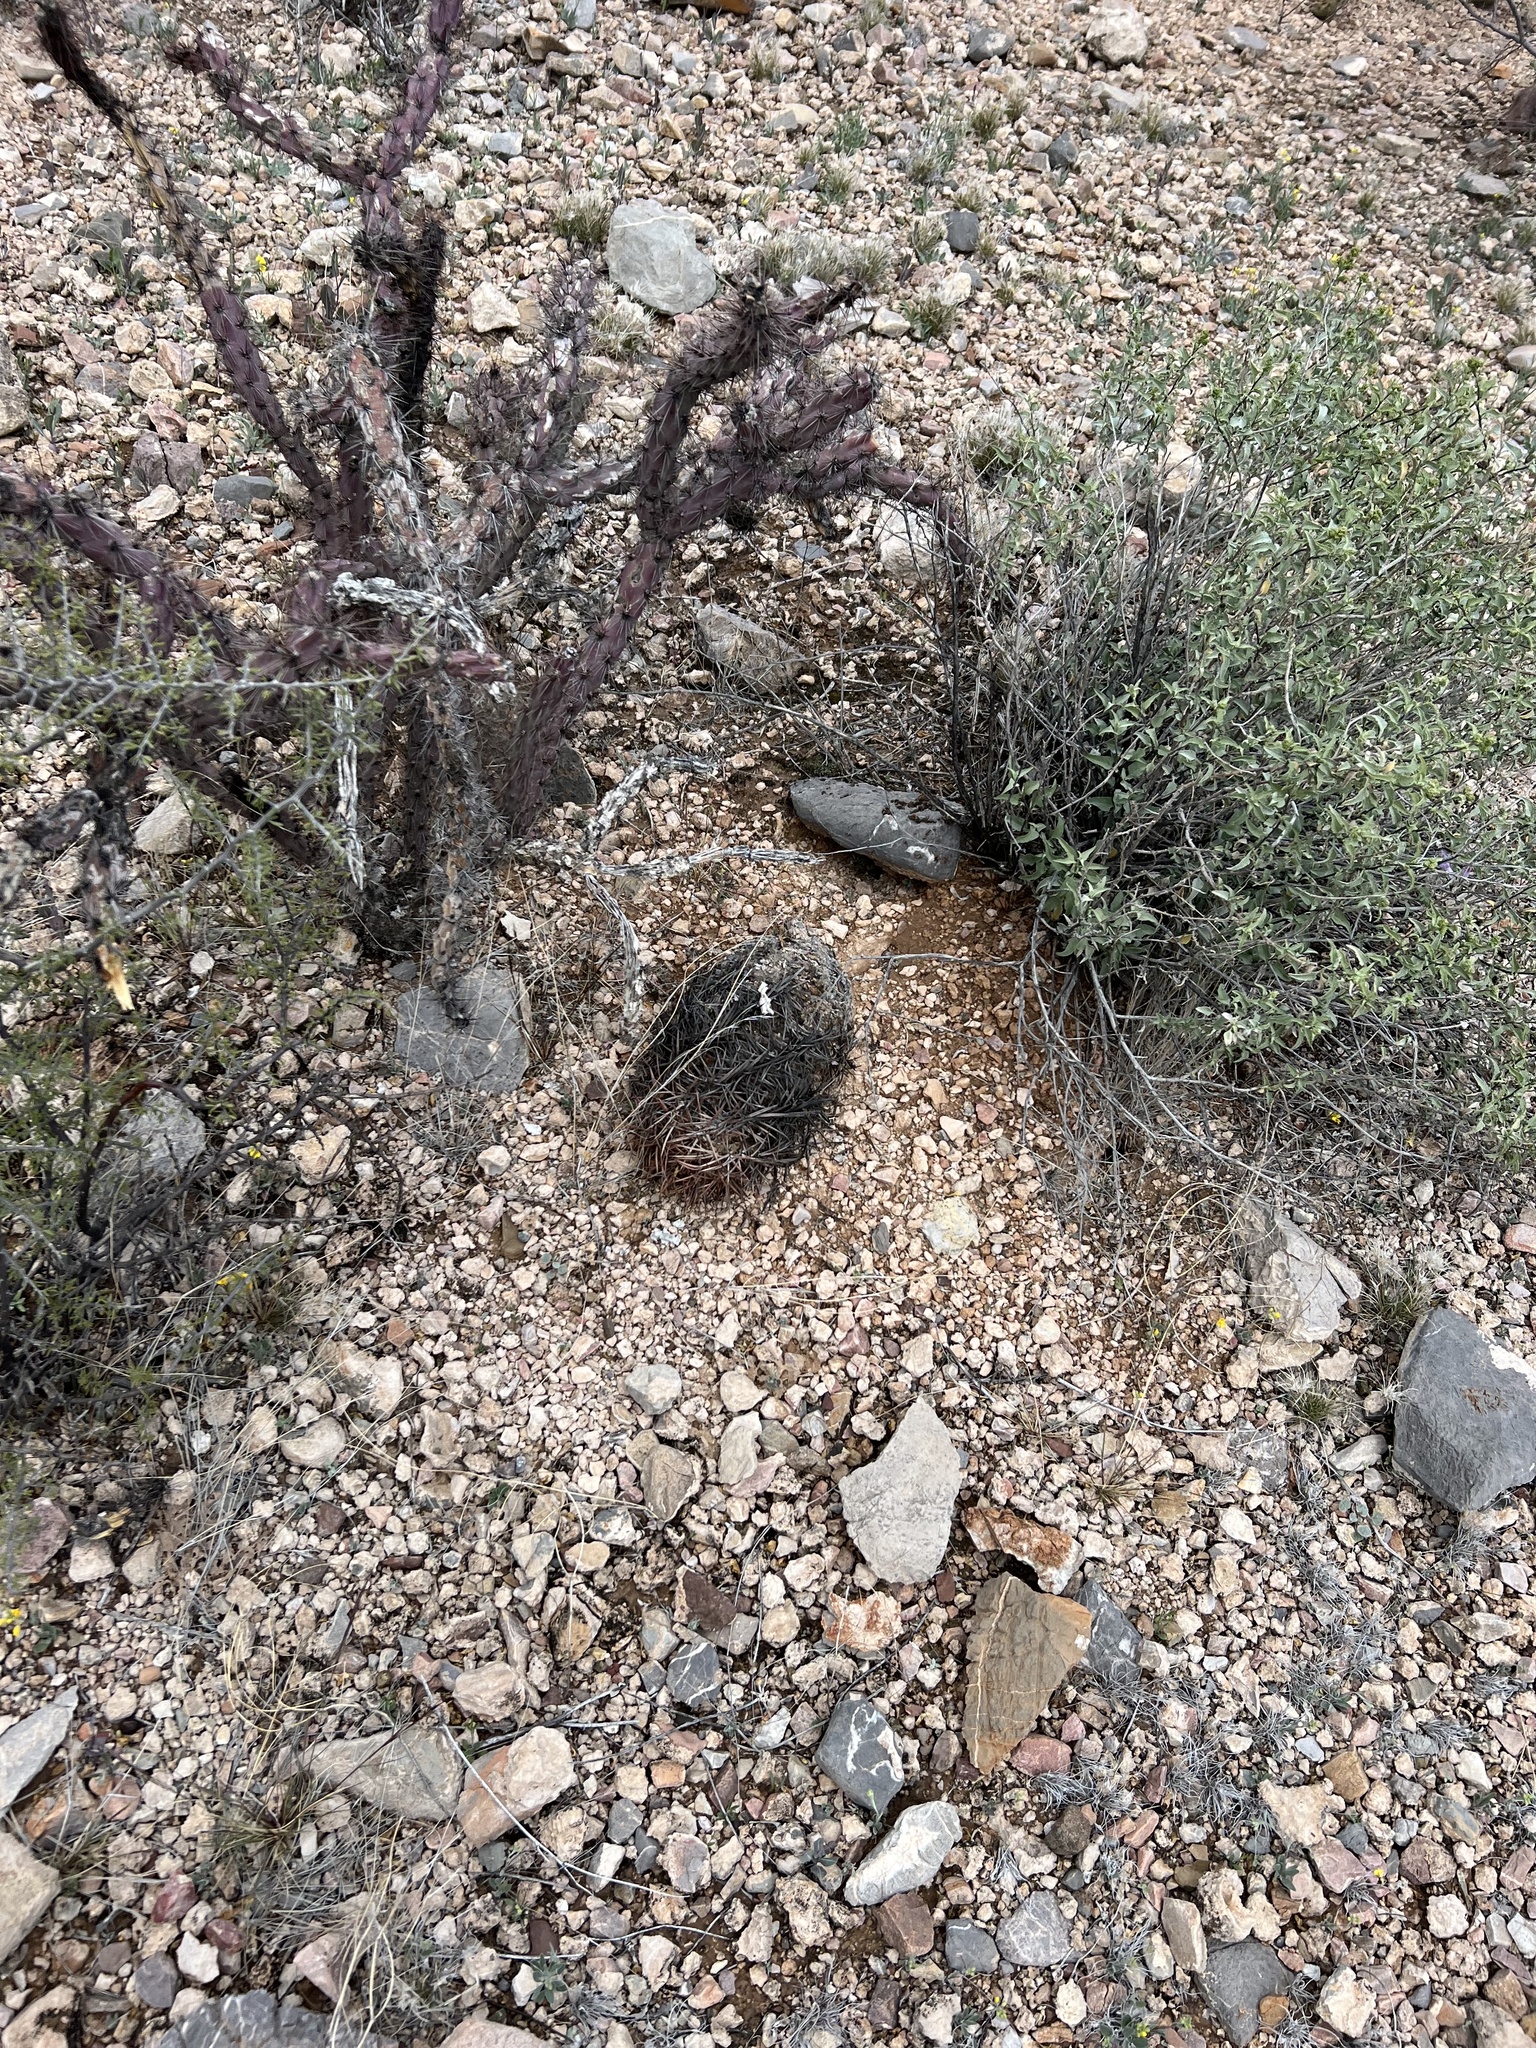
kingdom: Plantae
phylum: Tracheophyta
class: Magnoliopsida
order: Caryophyllales
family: Cactaceae
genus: Echinocactus
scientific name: Echinocactus horizonthalonius
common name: Devilshead
